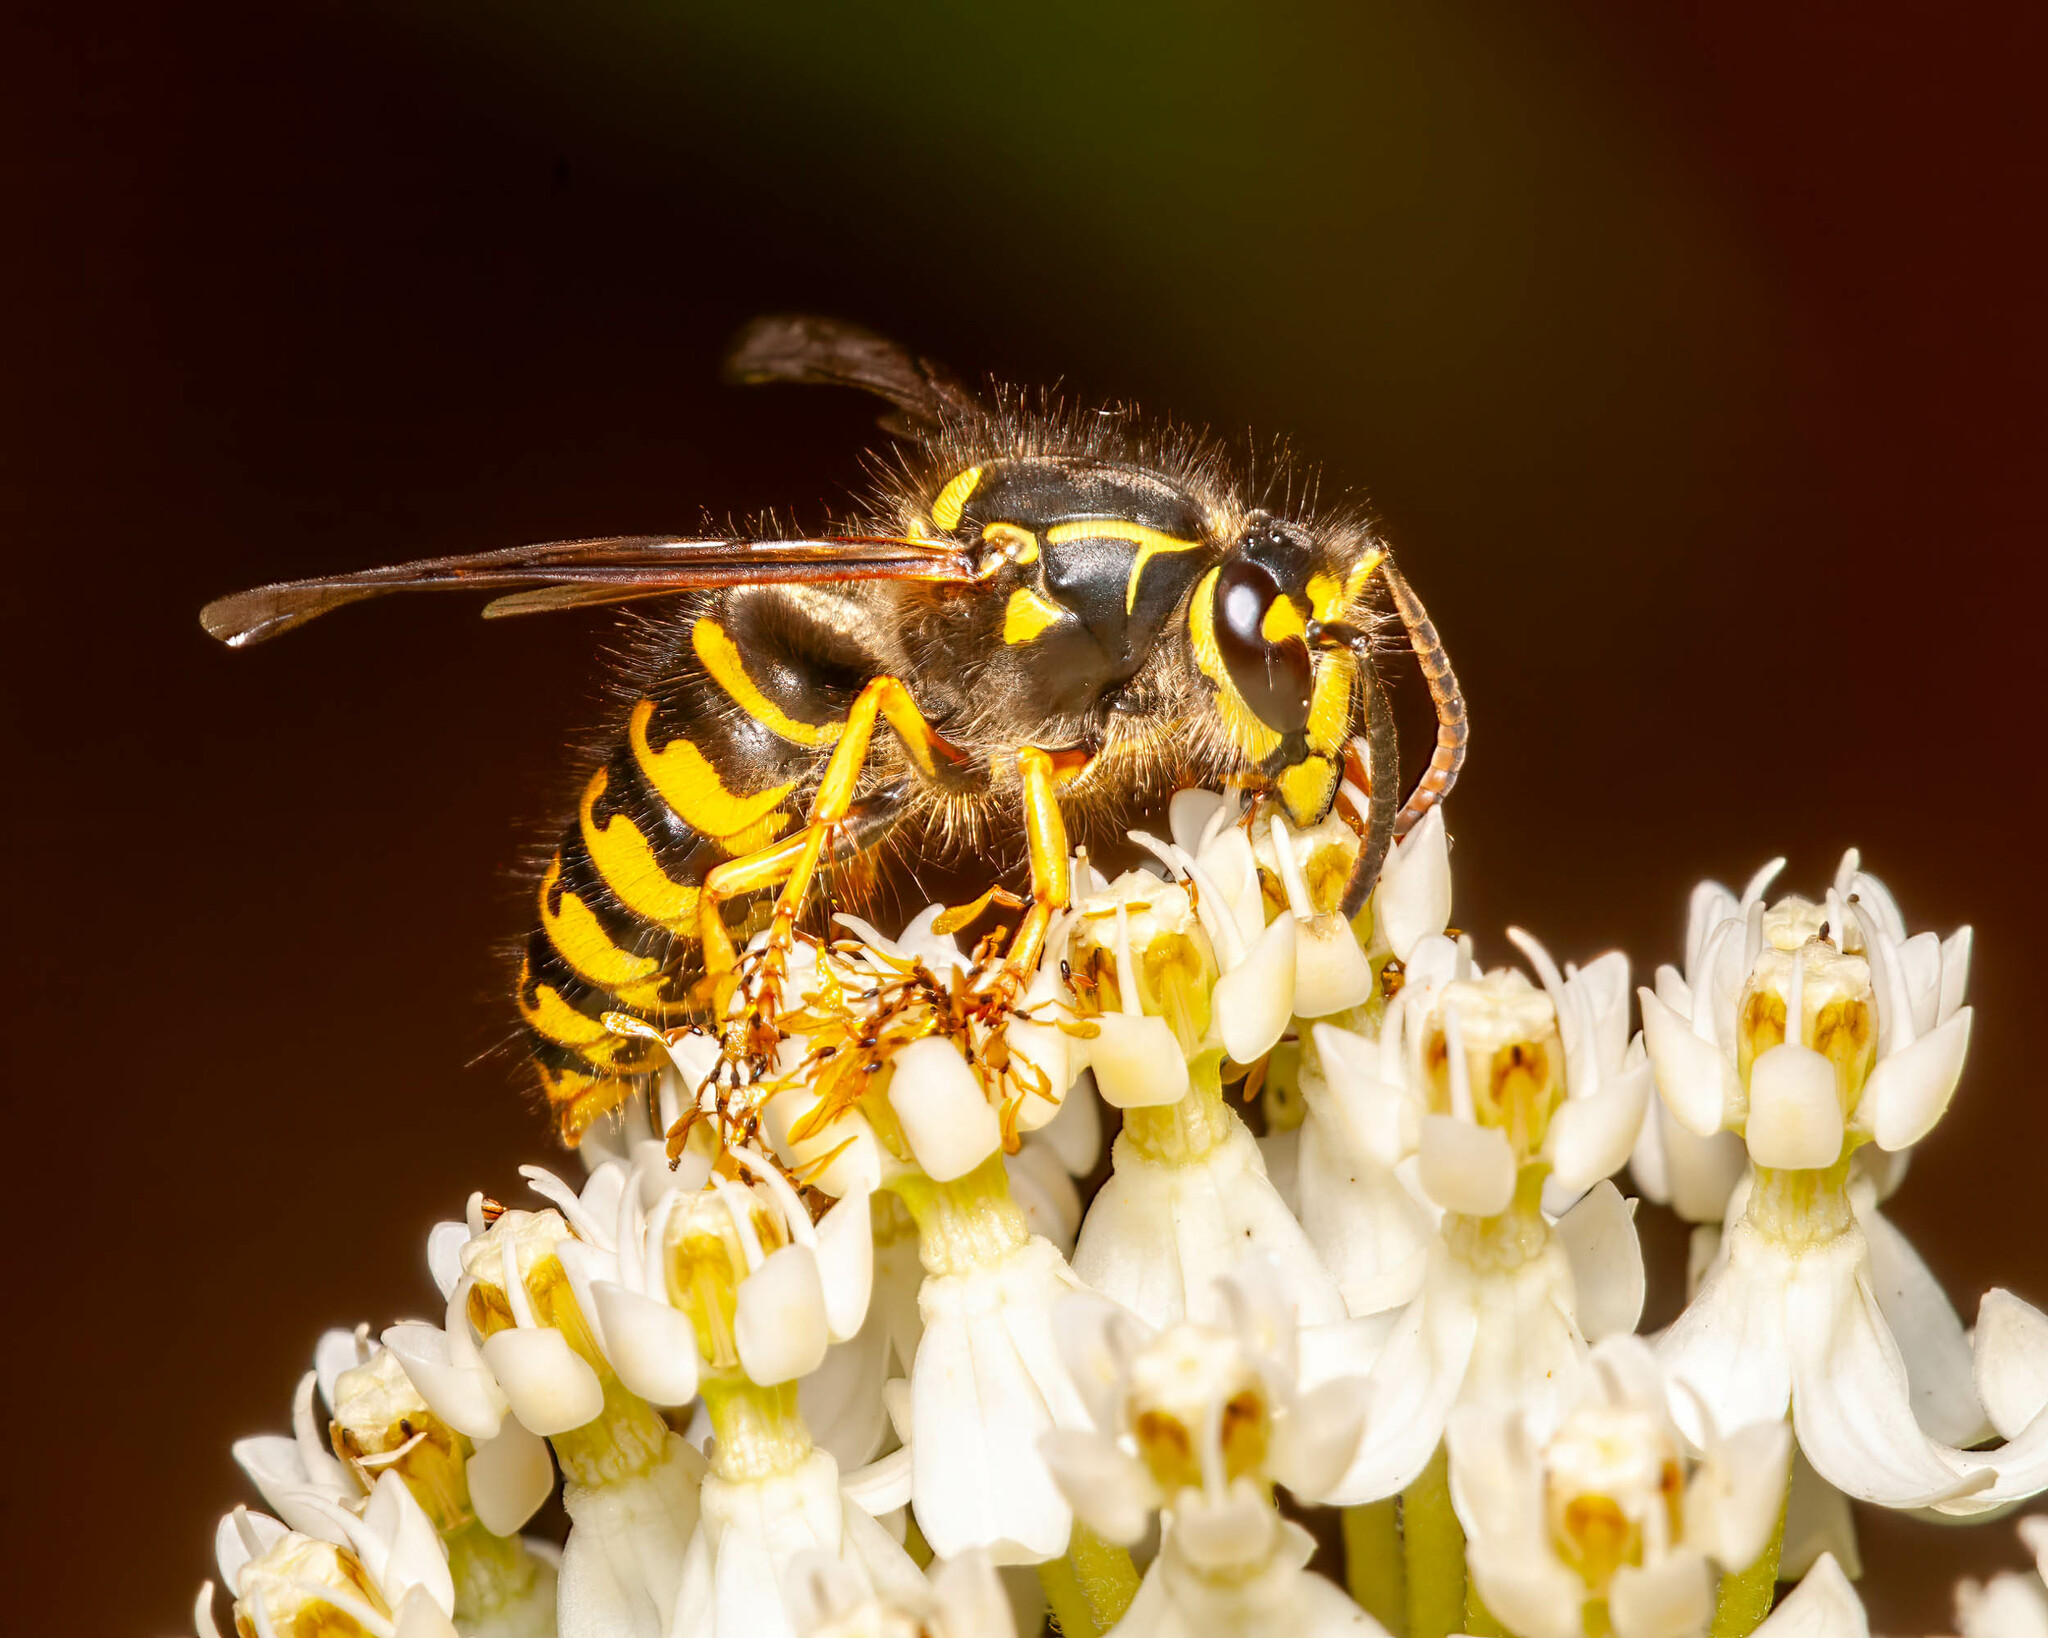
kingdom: Animalia
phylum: Arthropoda
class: Insecta
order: Hymenoptera
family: Vespidae
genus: Dolichovespula
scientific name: Dolichovespula arenaria
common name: Aerial yellowjacket
